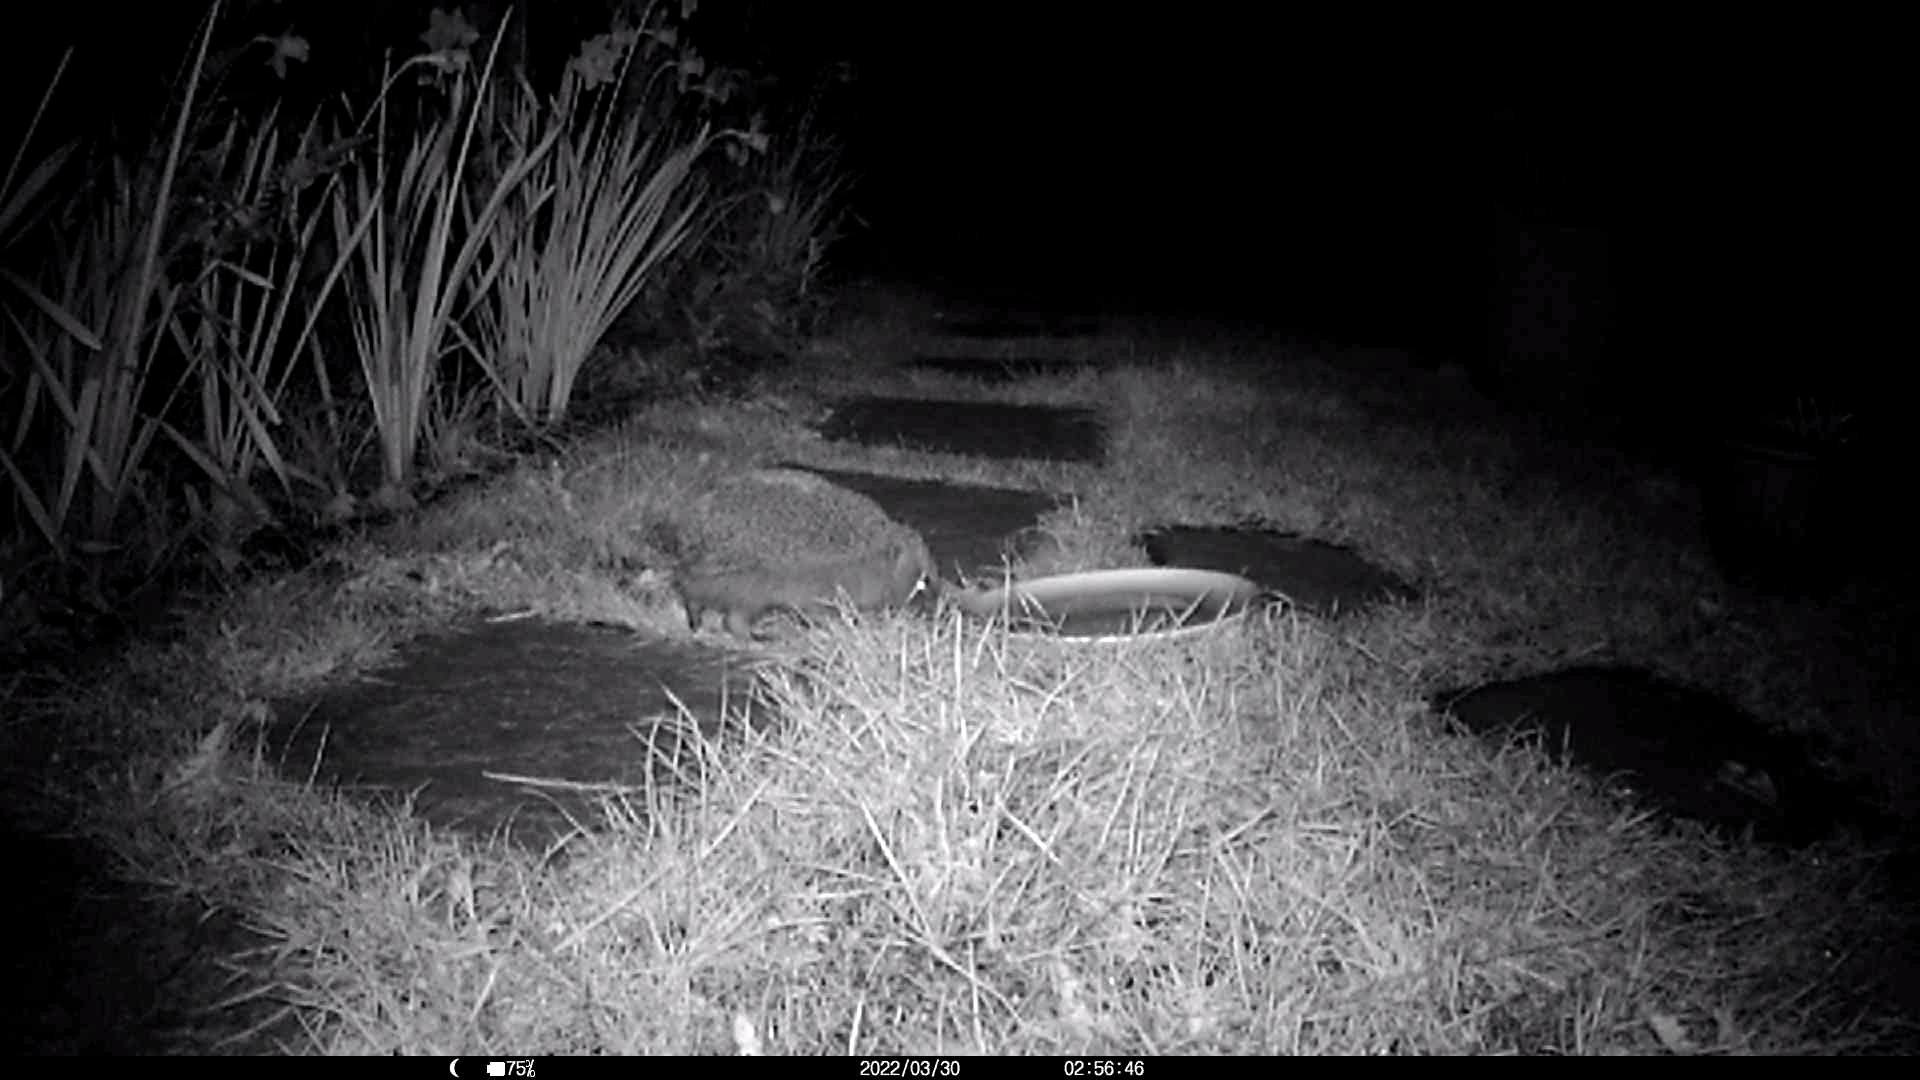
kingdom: Animalia
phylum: Chordata
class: Mammalia
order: Erinaceomorpha
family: Erinaceidae
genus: Erinaceus
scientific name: Erinaceus europaeus
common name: West european hedgehog
